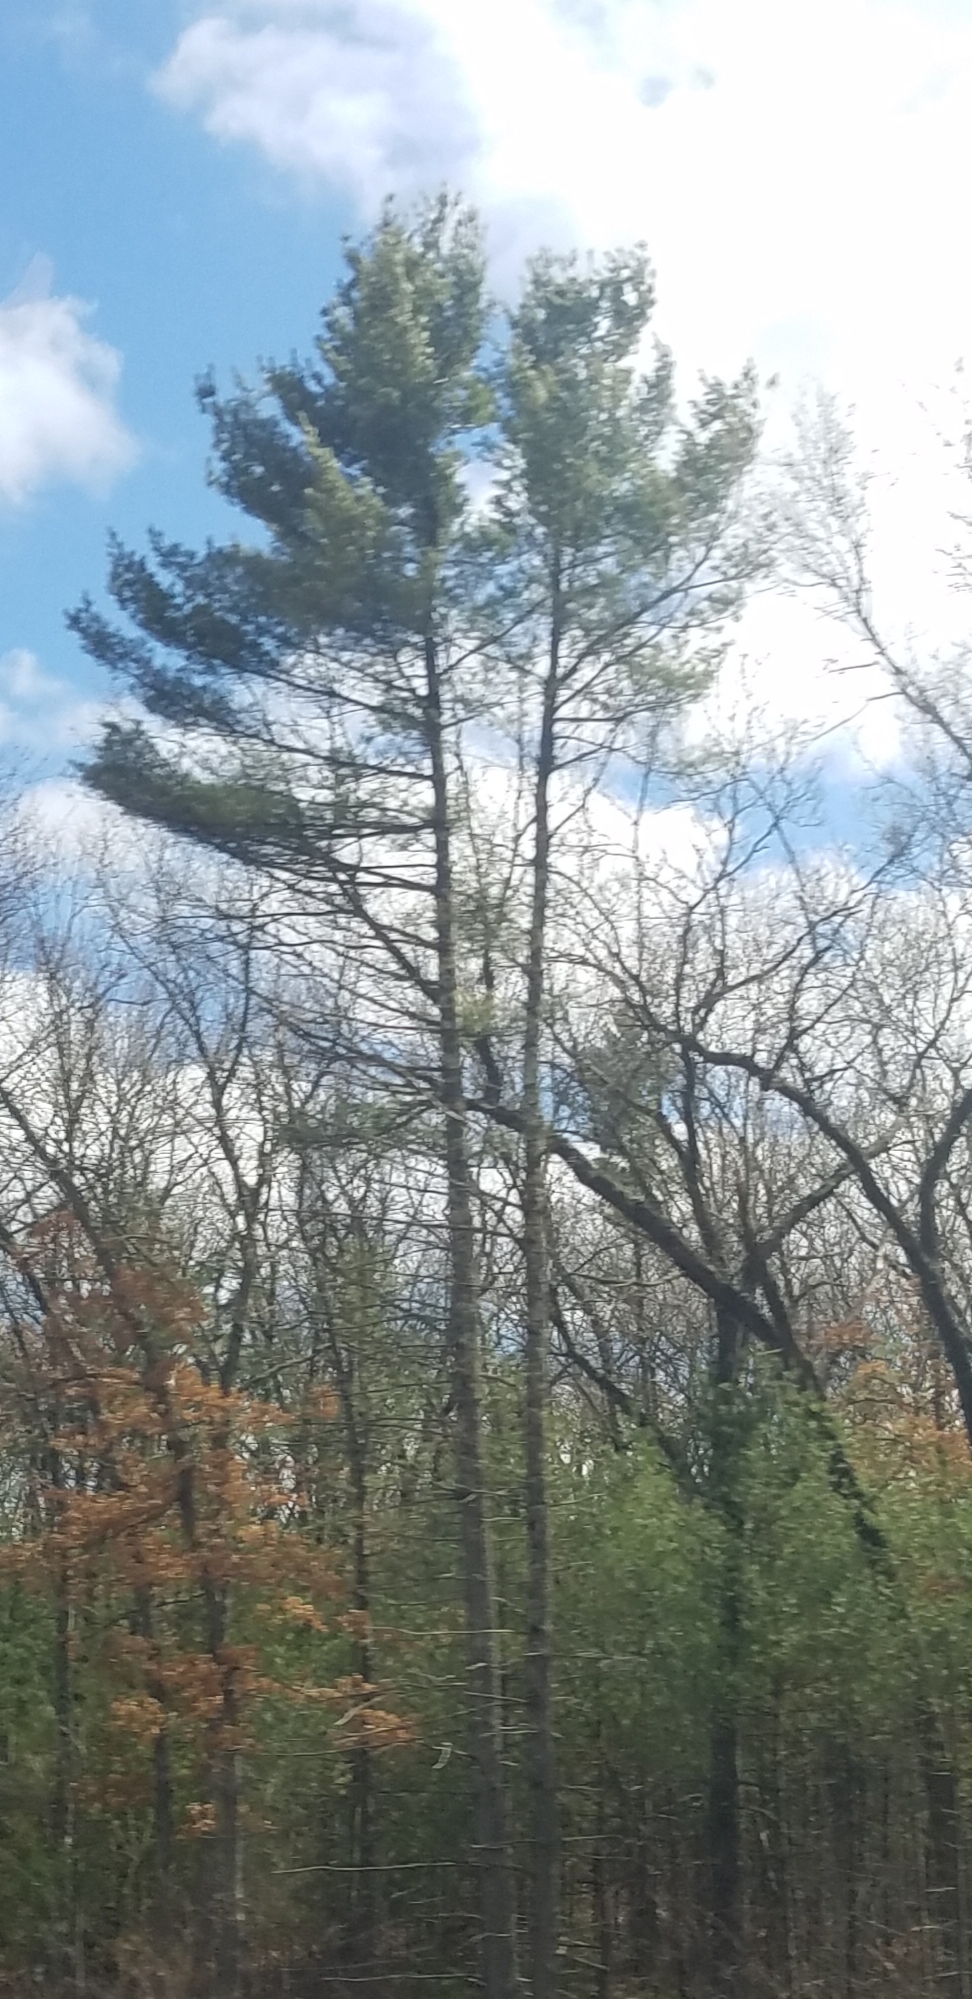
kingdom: Plantae
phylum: Tracheophyta
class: Pinopsida
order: Pinales
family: Pinaceae
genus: Pinus
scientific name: Pinus strobus
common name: Weymouth pine
